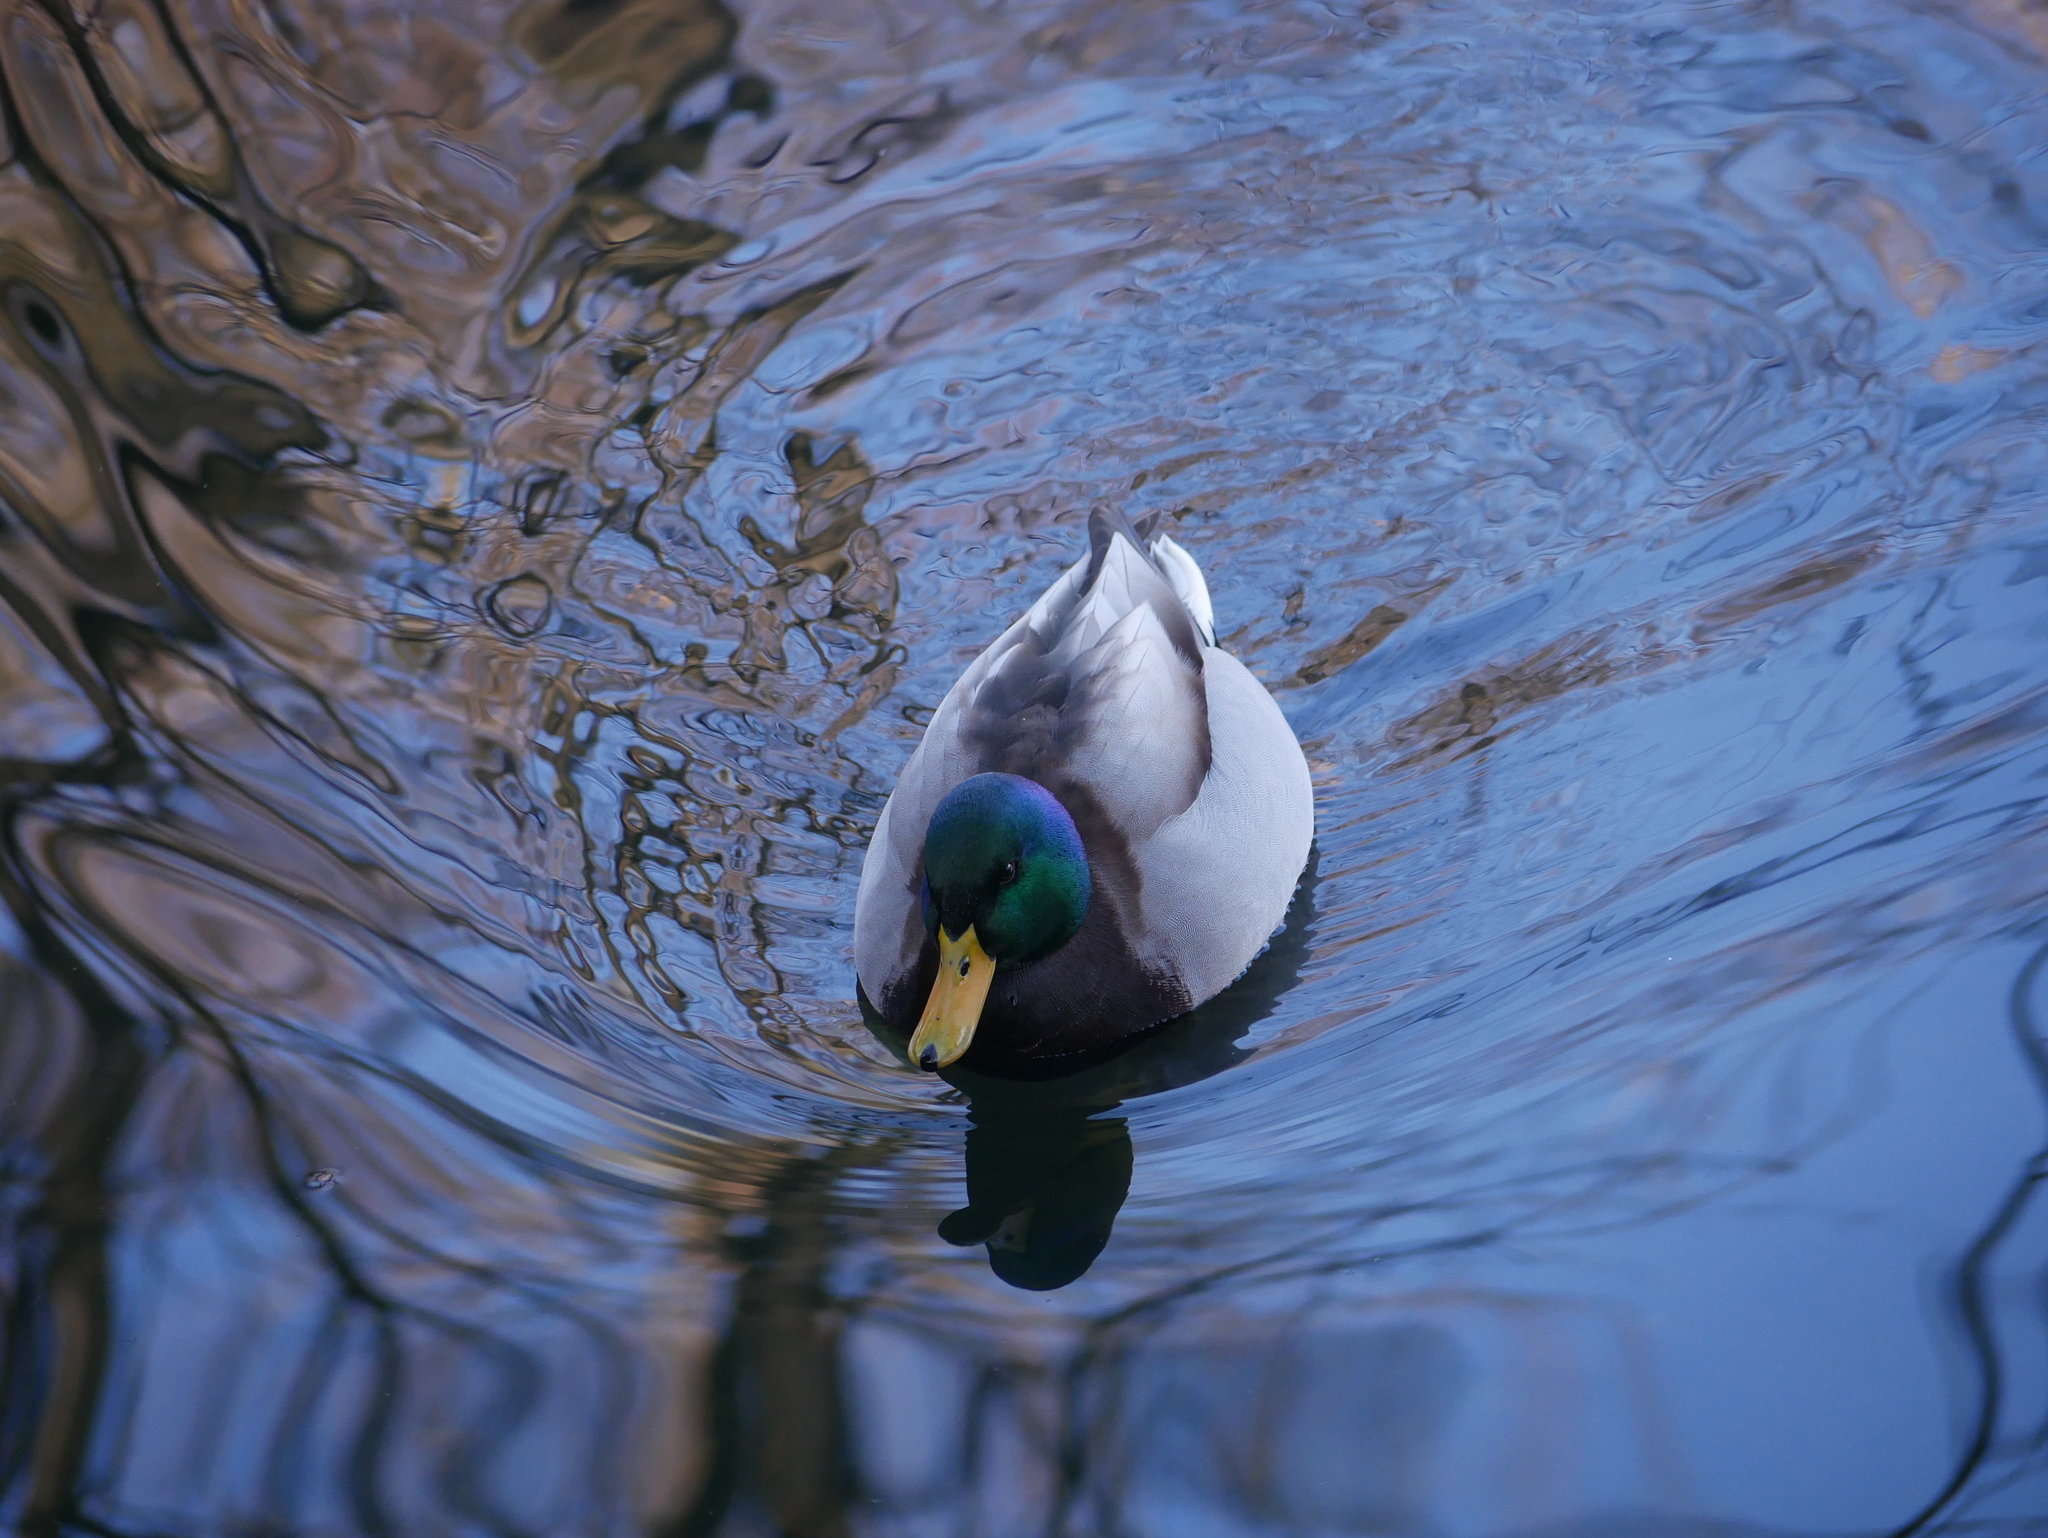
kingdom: Animalia
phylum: Chordata
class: Aves
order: Anseriformes
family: Anatidae
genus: Anas
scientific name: Anas platyrhynchos
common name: Mallard
